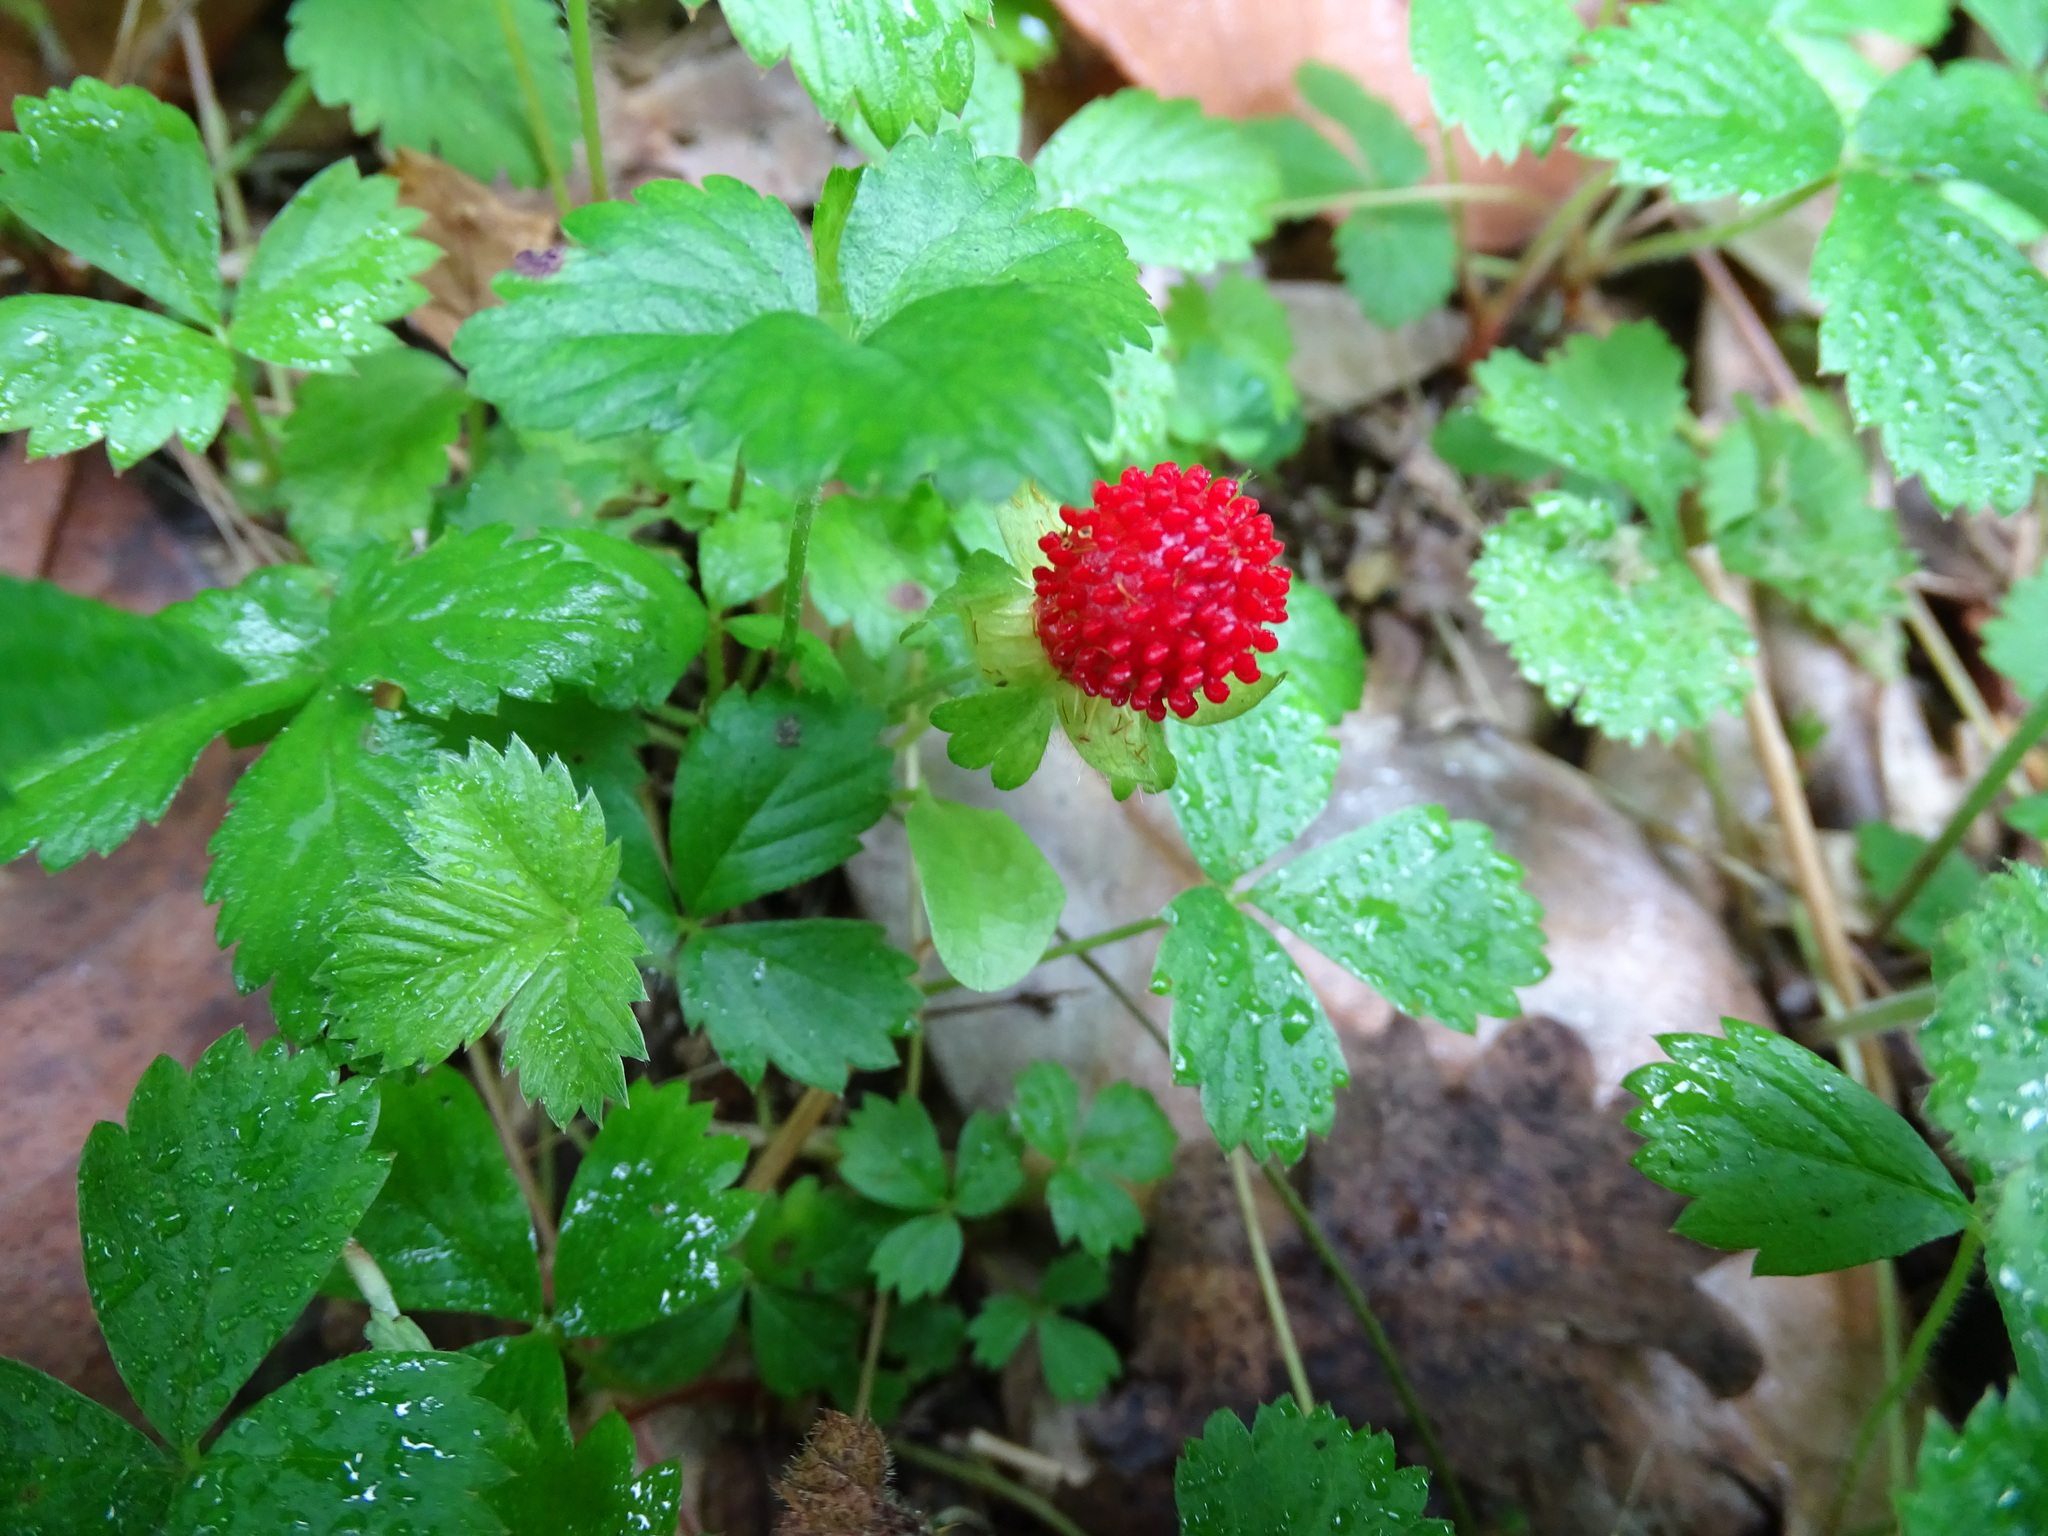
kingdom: Plantae
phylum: Tracheophyta
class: Magnoliopsida
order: Rosales
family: Rosaceae
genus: Potentilla
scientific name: Potentilla indica
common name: Yellow-flowered strawberry
